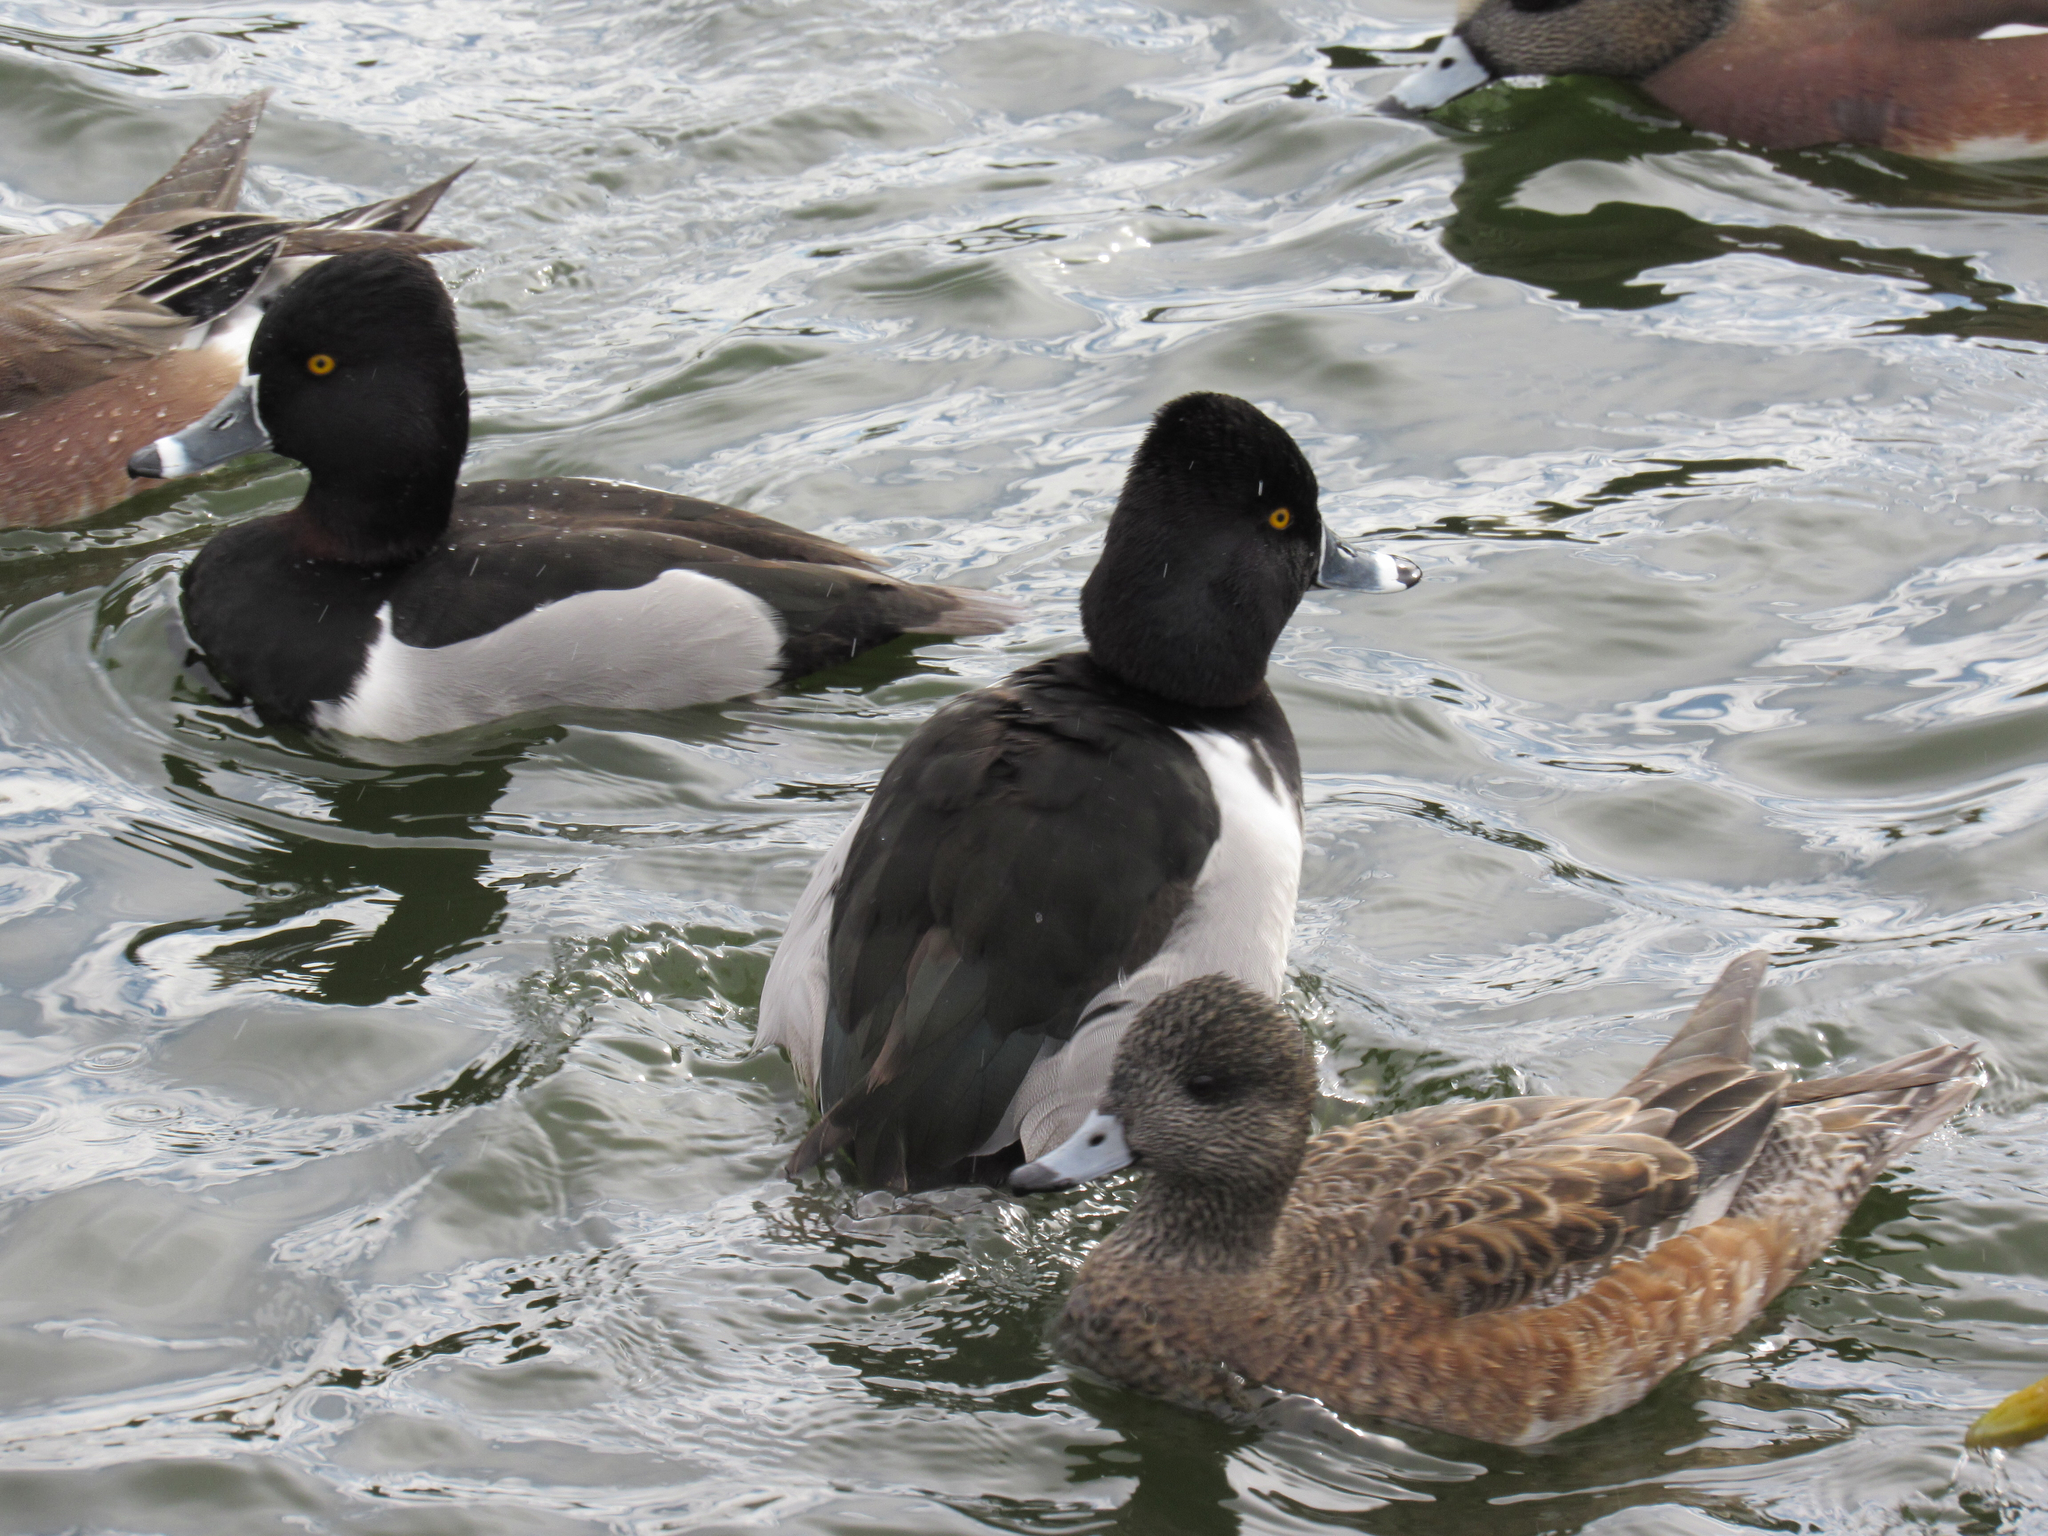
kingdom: Animalia
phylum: Chordata
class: Aves
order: Anseriformes
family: Anatidae
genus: Aythya
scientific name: Aythya collaris
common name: Ring-necked duck
